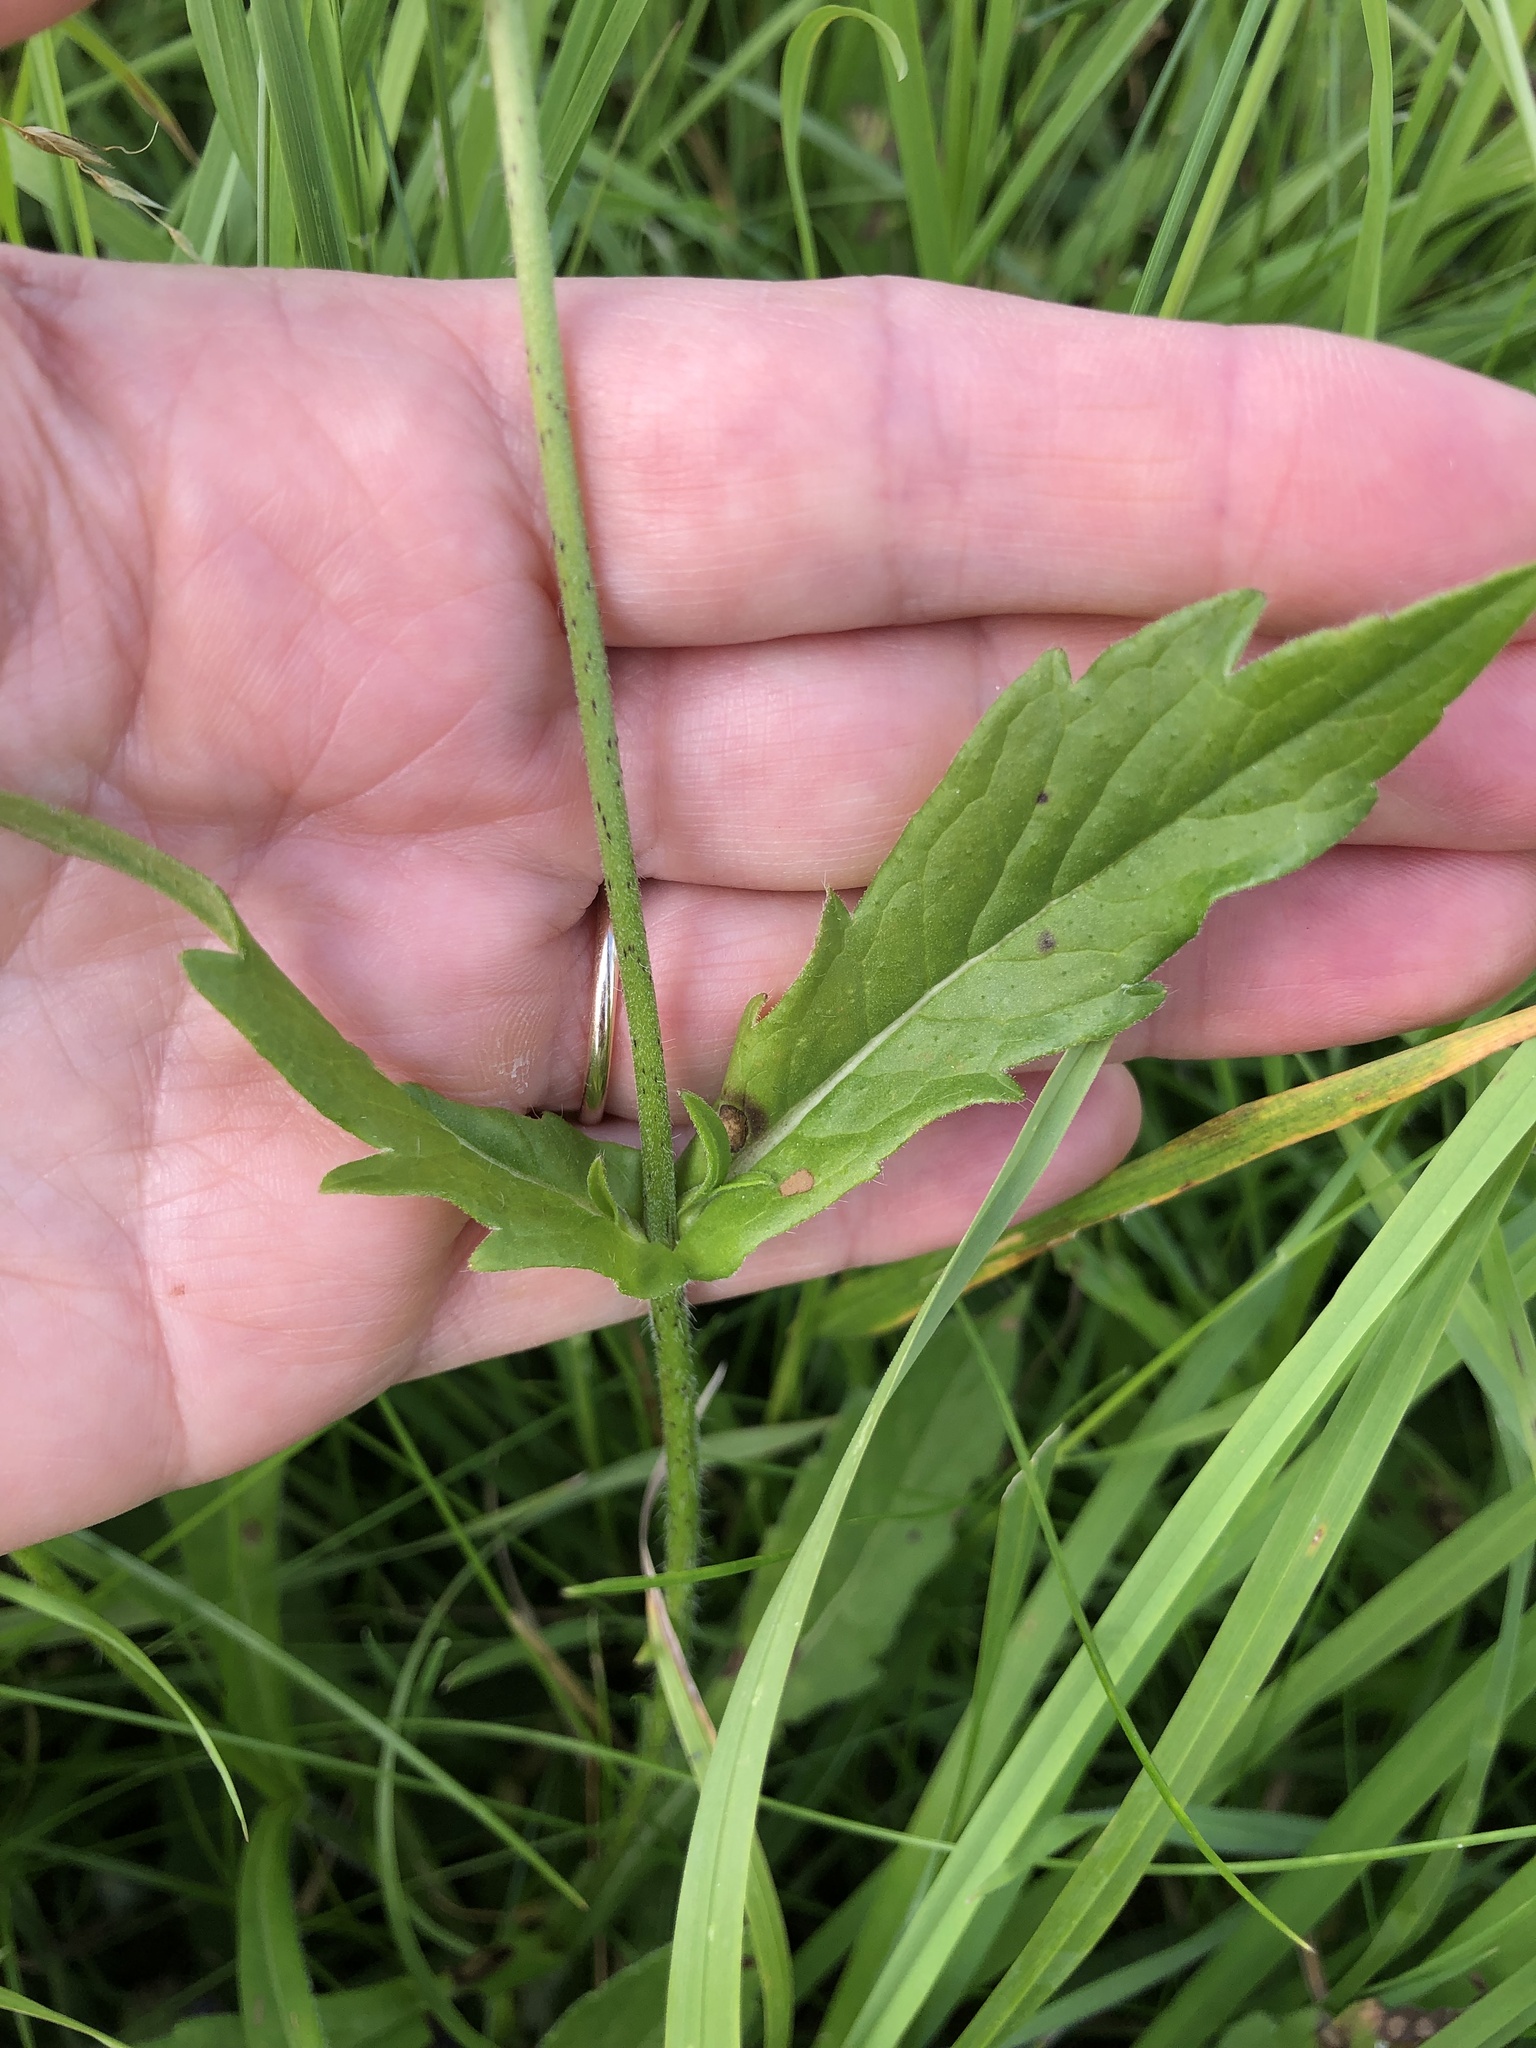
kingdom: Plantae
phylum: Tracheophyta
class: Magnoliopsida
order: Dipsacales
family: Caprifoliaceae
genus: Knautia
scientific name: Knautia arvensis
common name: Field scabiosa
